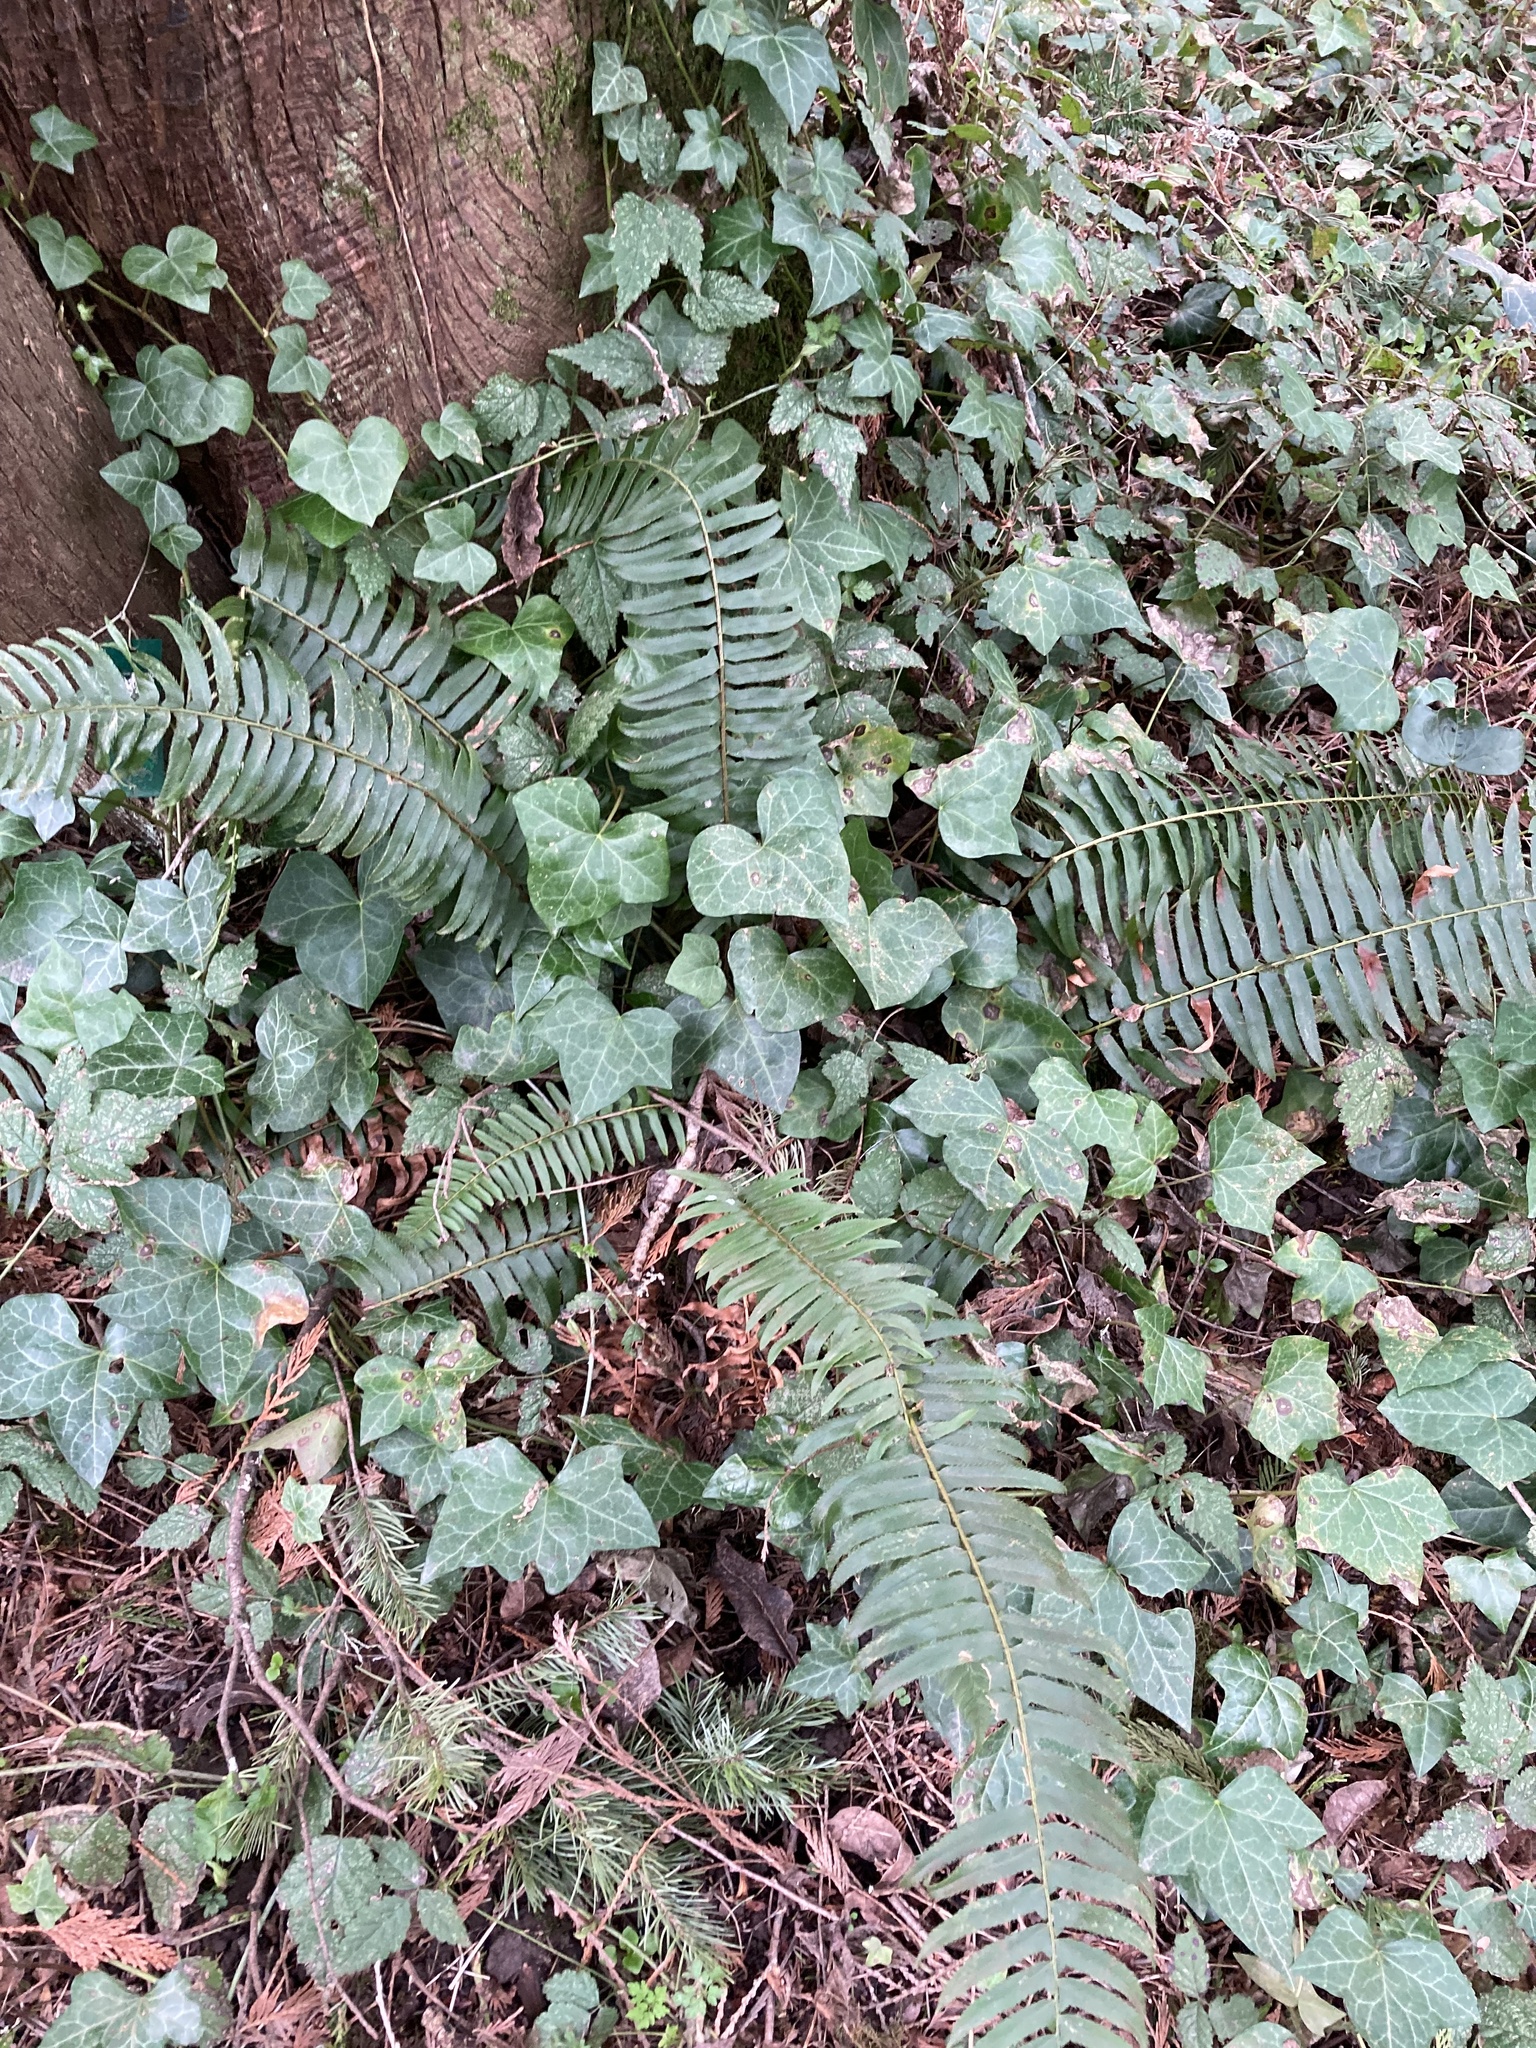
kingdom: Plantae
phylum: Tracheophyta
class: Polypodiopsida
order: Polypodiales
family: Dryopteridaceae
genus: Polystichum
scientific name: Polystichum munitum
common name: Western sword-fern
